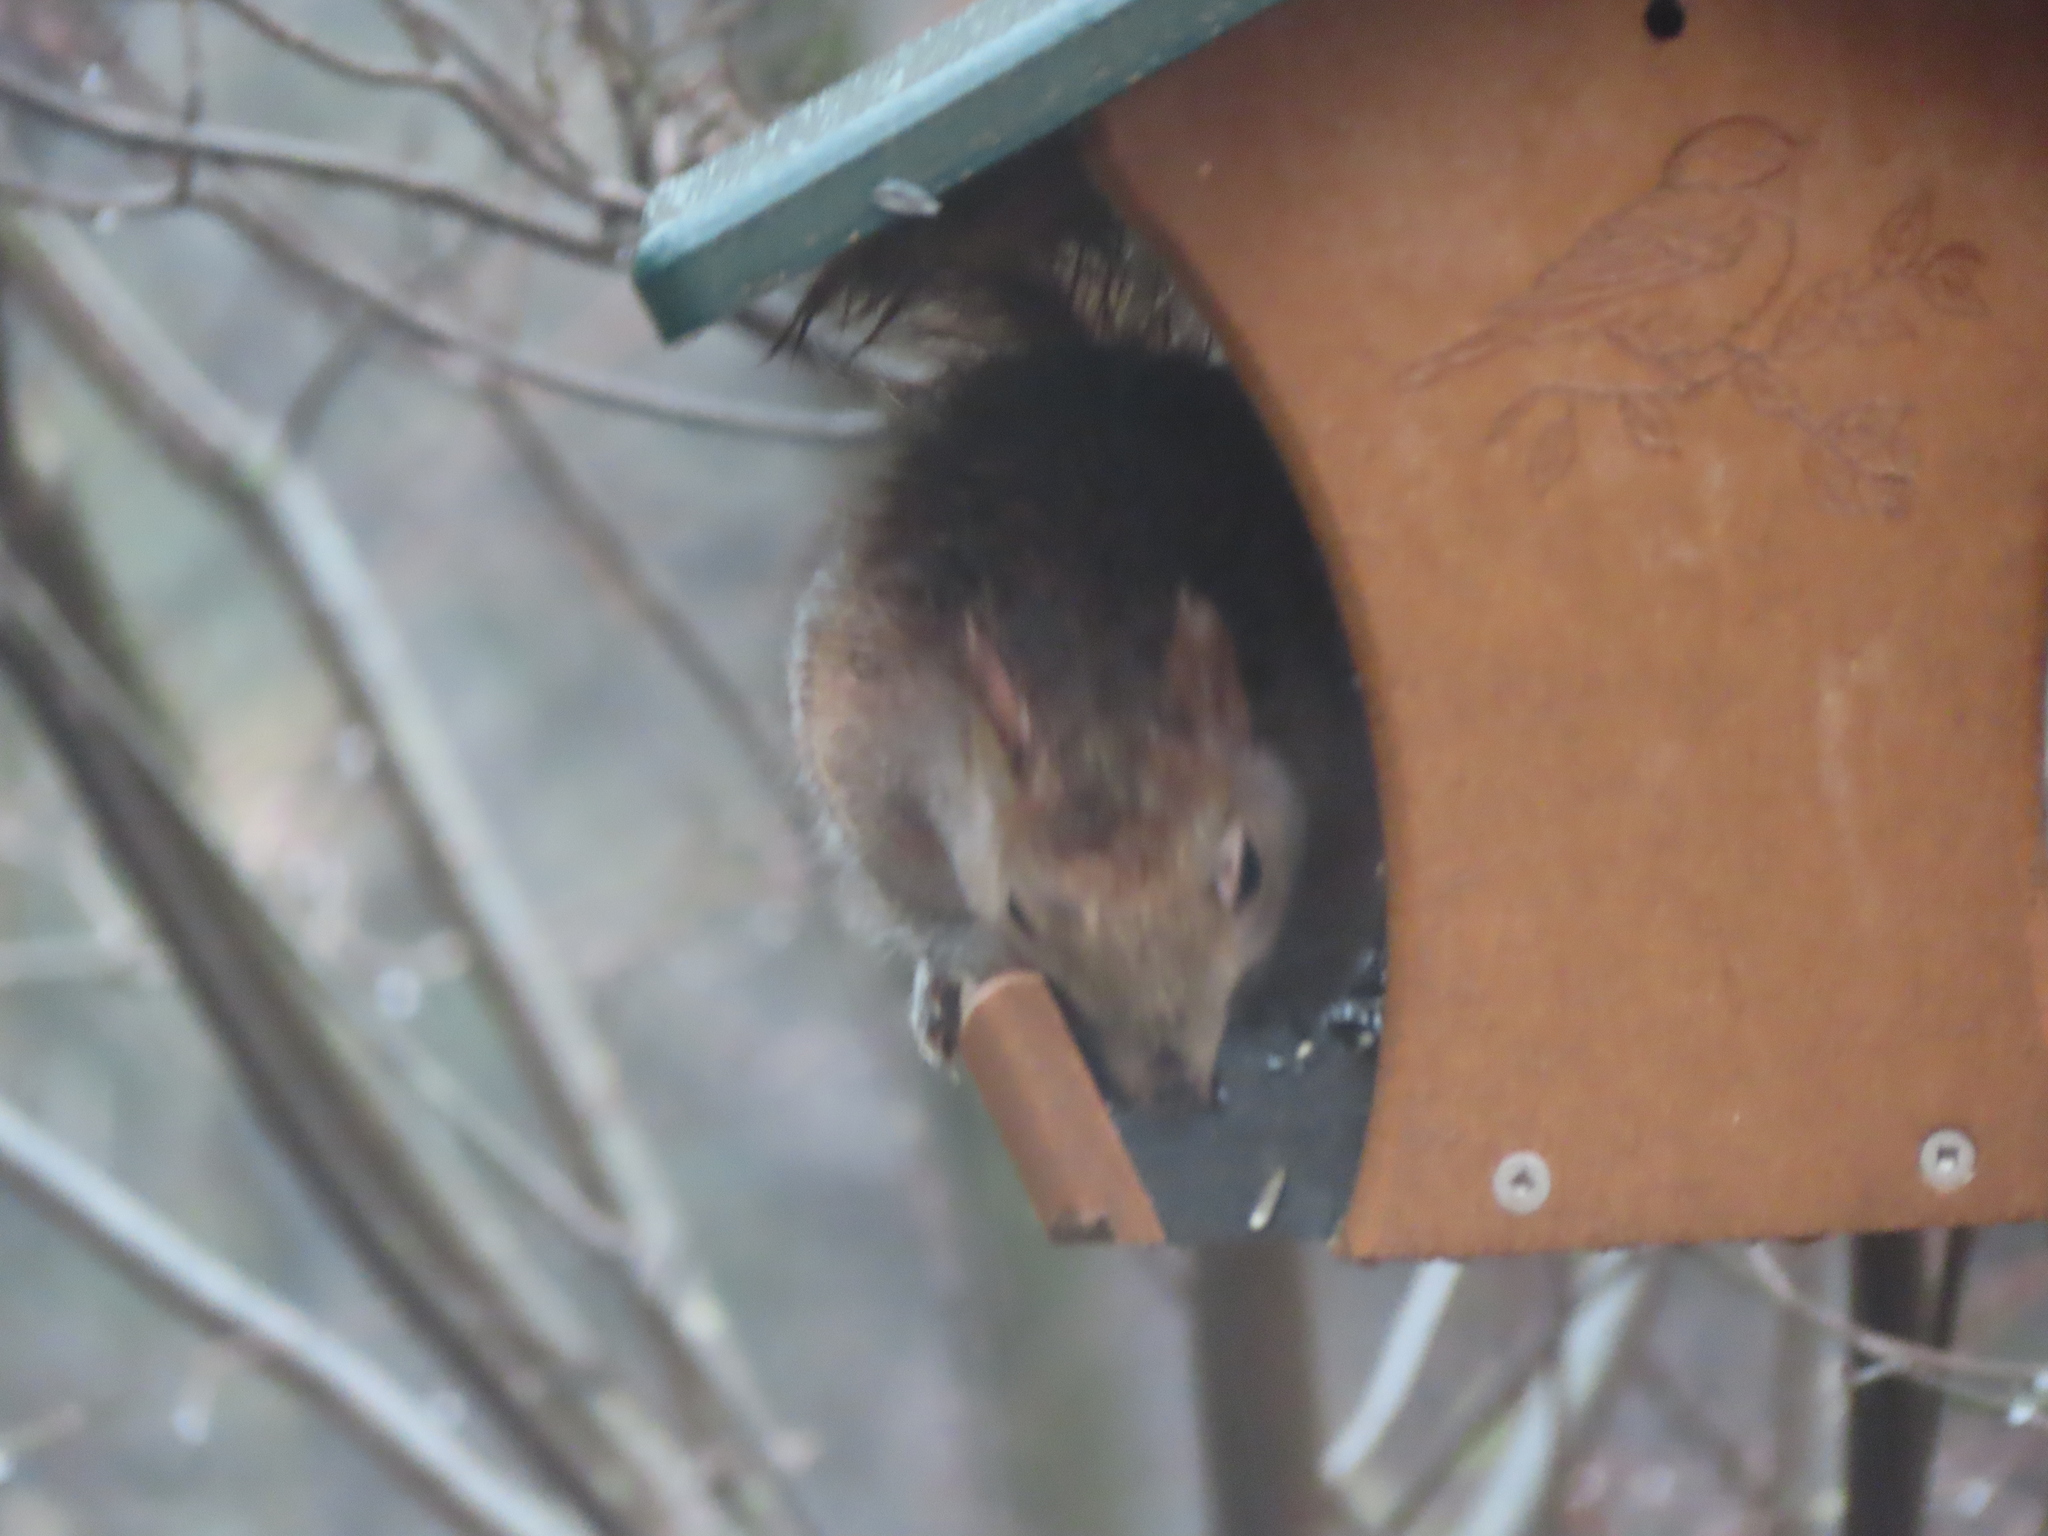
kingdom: Animalia
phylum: Chordata
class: Mammalia
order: Rodentia
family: Sciuridae
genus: Sciurus
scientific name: Sciurus carolinensis
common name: Eastern gray squirrel
